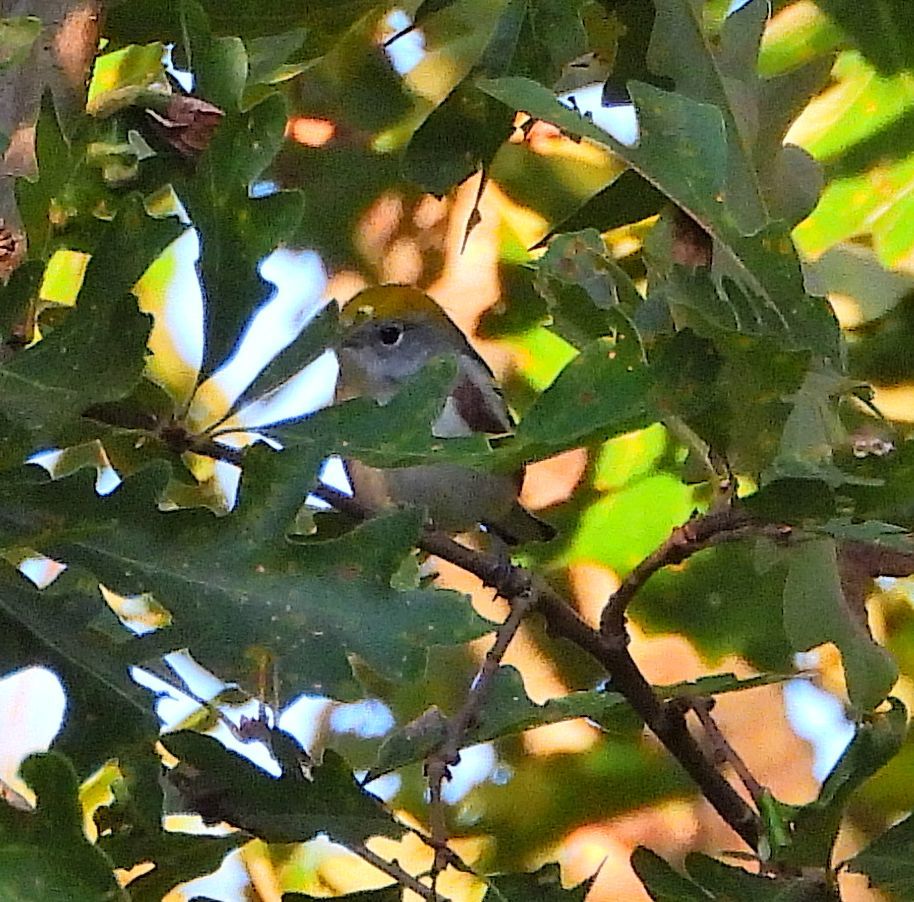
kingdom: Animalia
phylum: Chordata
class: Aves
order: Passeriformes
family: Parulidae
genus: Setophaga
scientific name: Setophaga pensylvanica
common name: Chestnut-sided warbler
